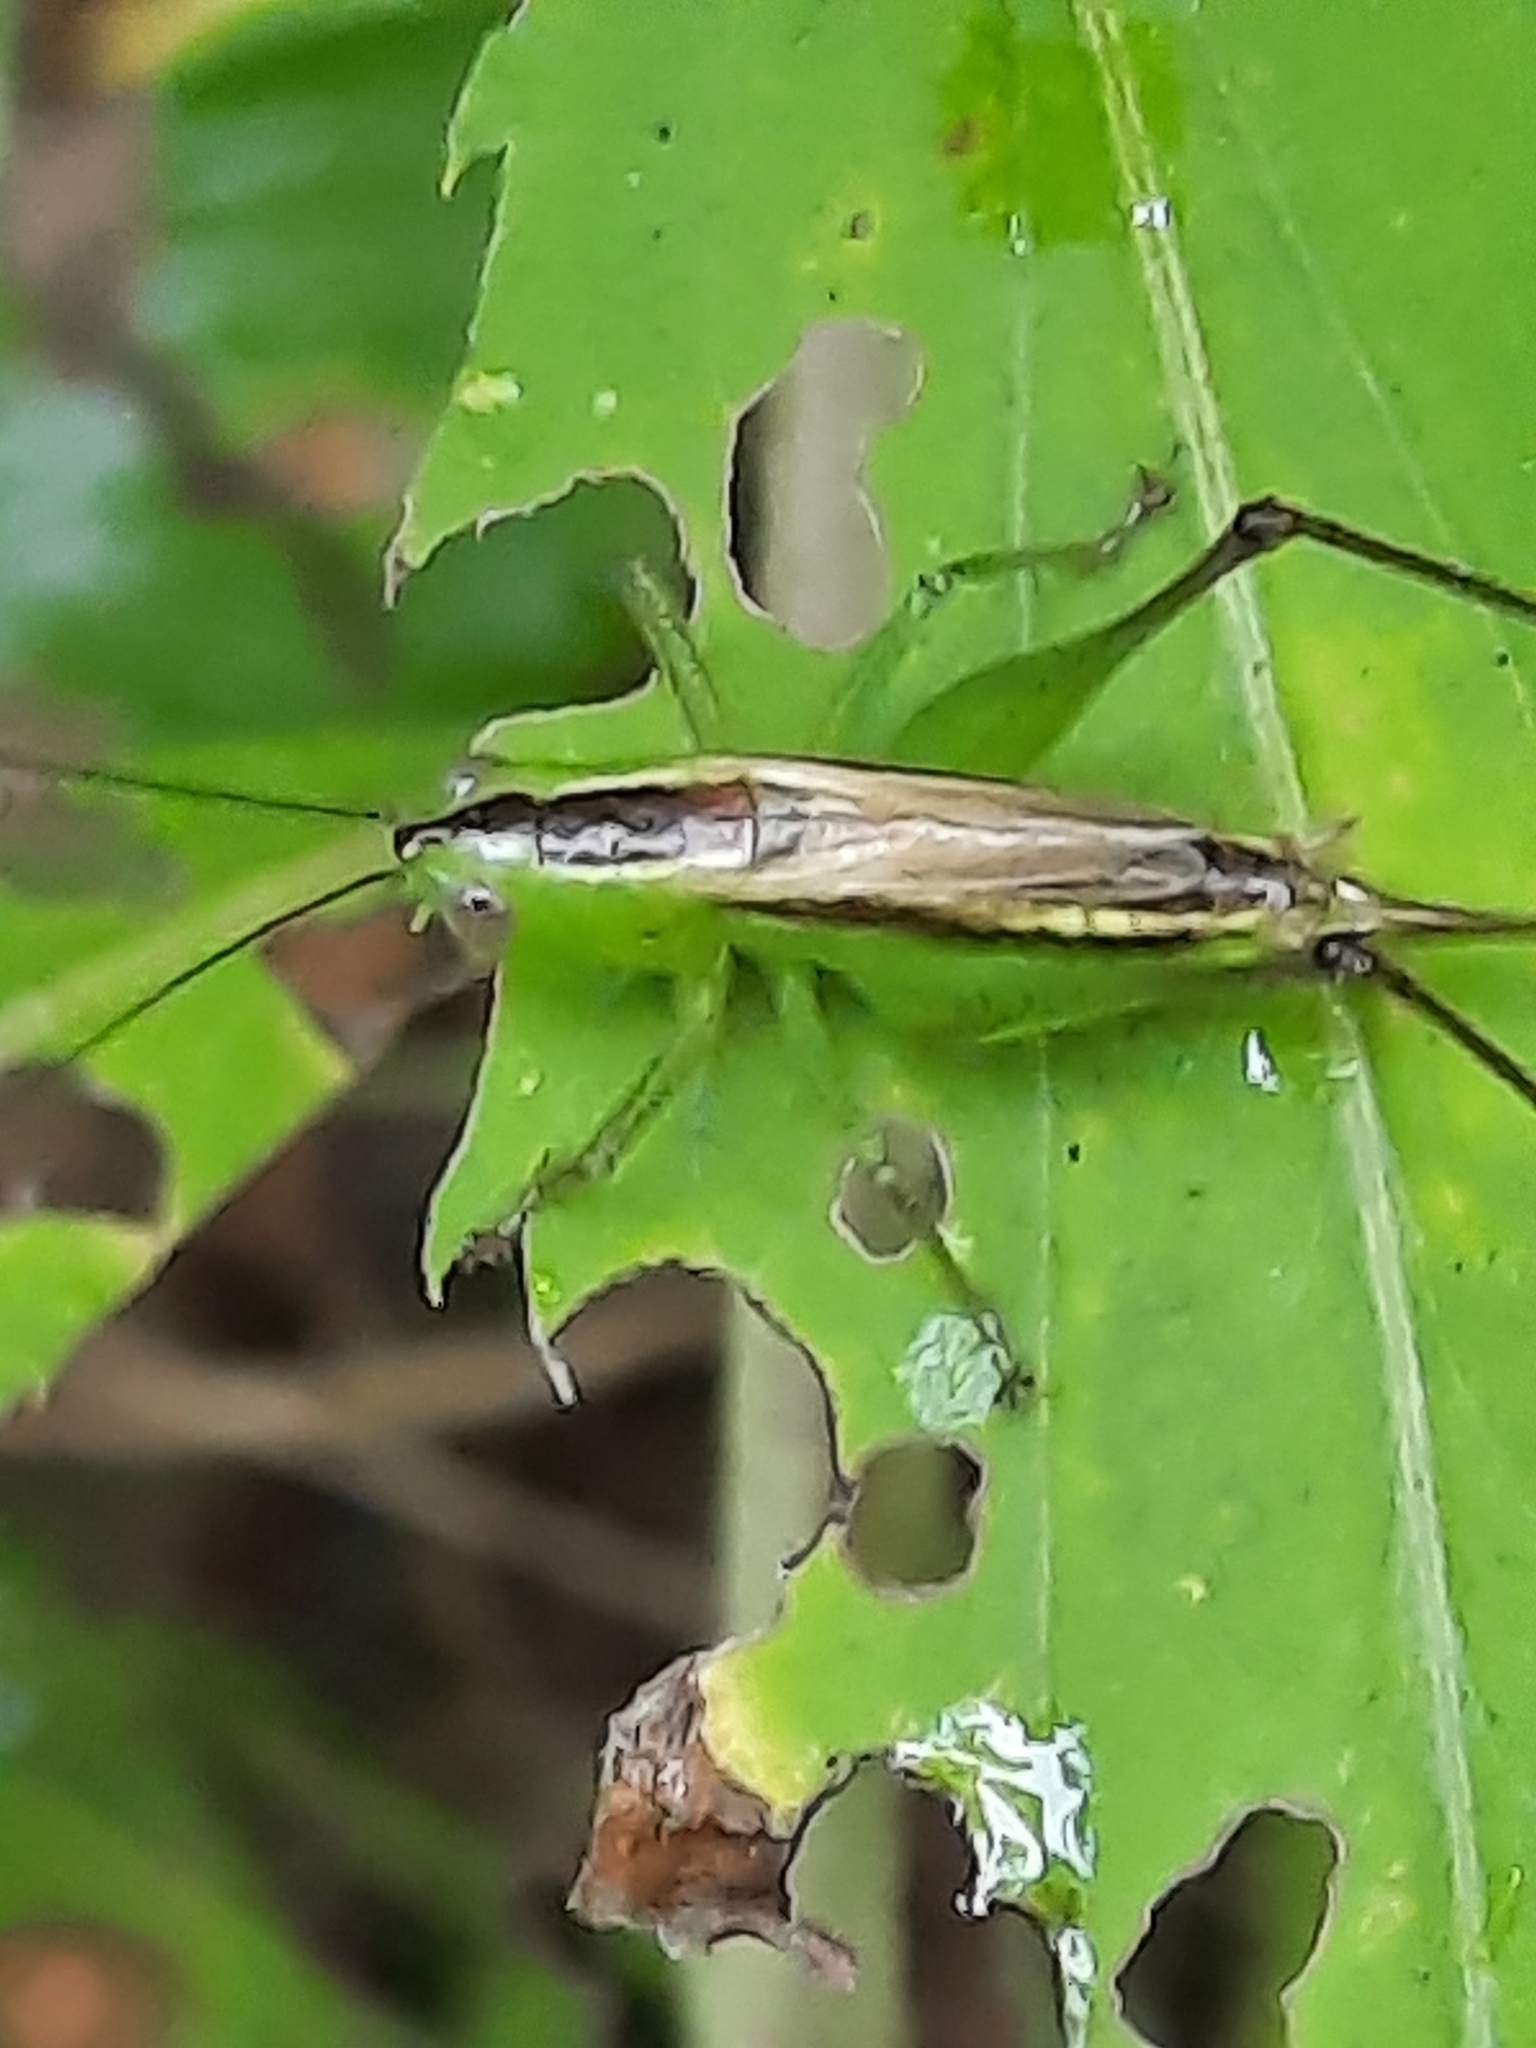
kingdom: Animalia
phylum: Arthropoda
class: Insecta
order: Orthoptera
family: Tettigoniidae
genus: Conocephalus
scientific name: Conocephalus brevipennis
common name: Short-winged meadow katydid
